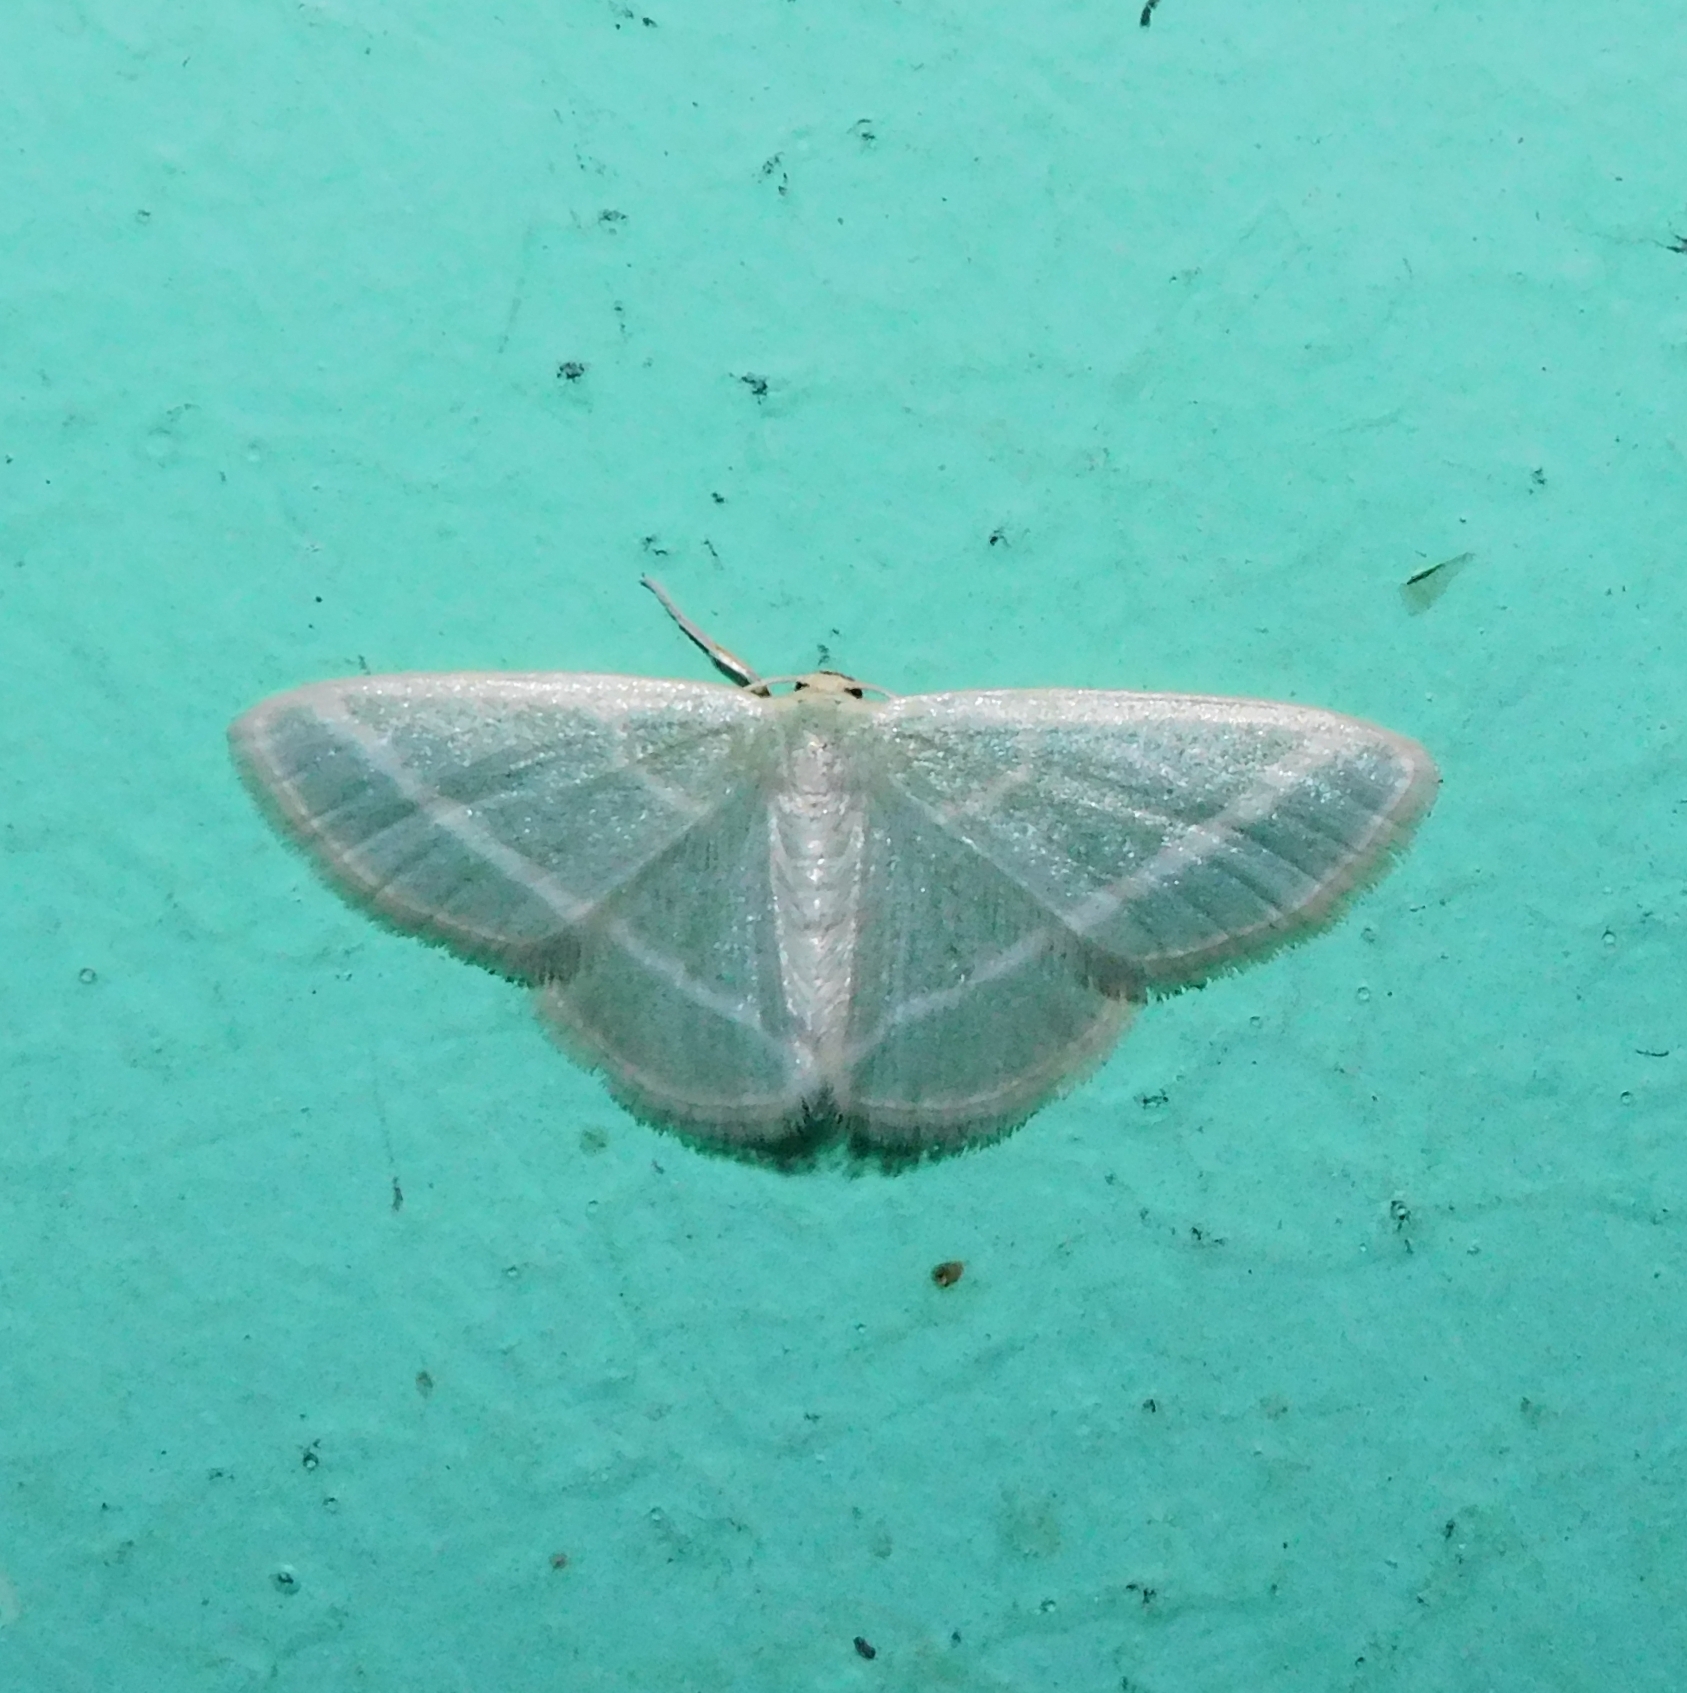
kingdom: Animalia
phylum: Arthropoda
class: Insecta
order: Lepidoptera
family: Geometridae
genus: Mixocera
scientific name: Mixocera albilineata
